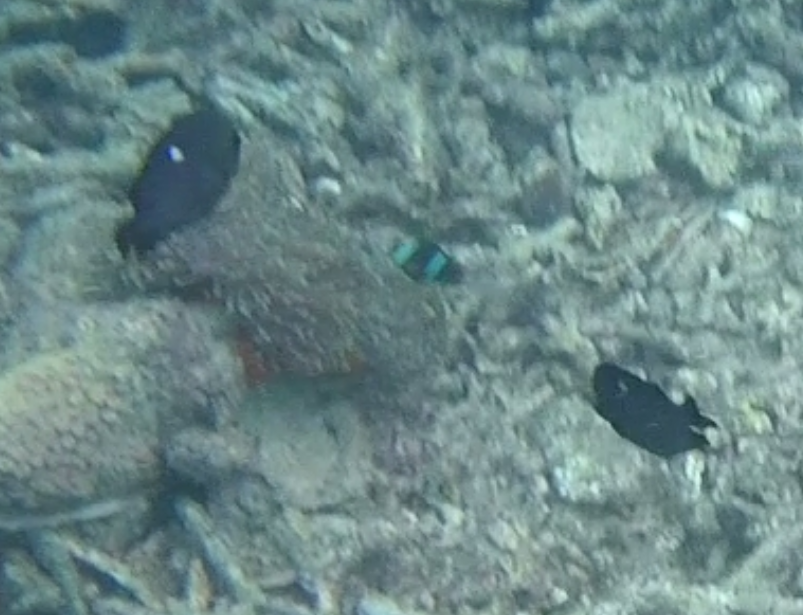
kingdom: Animalia
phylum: Chordata
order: Perciformes
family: Pomacentridae
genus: Dascyllus
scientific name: Dascyllus trimaculatus
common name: Threespot dascyllus
